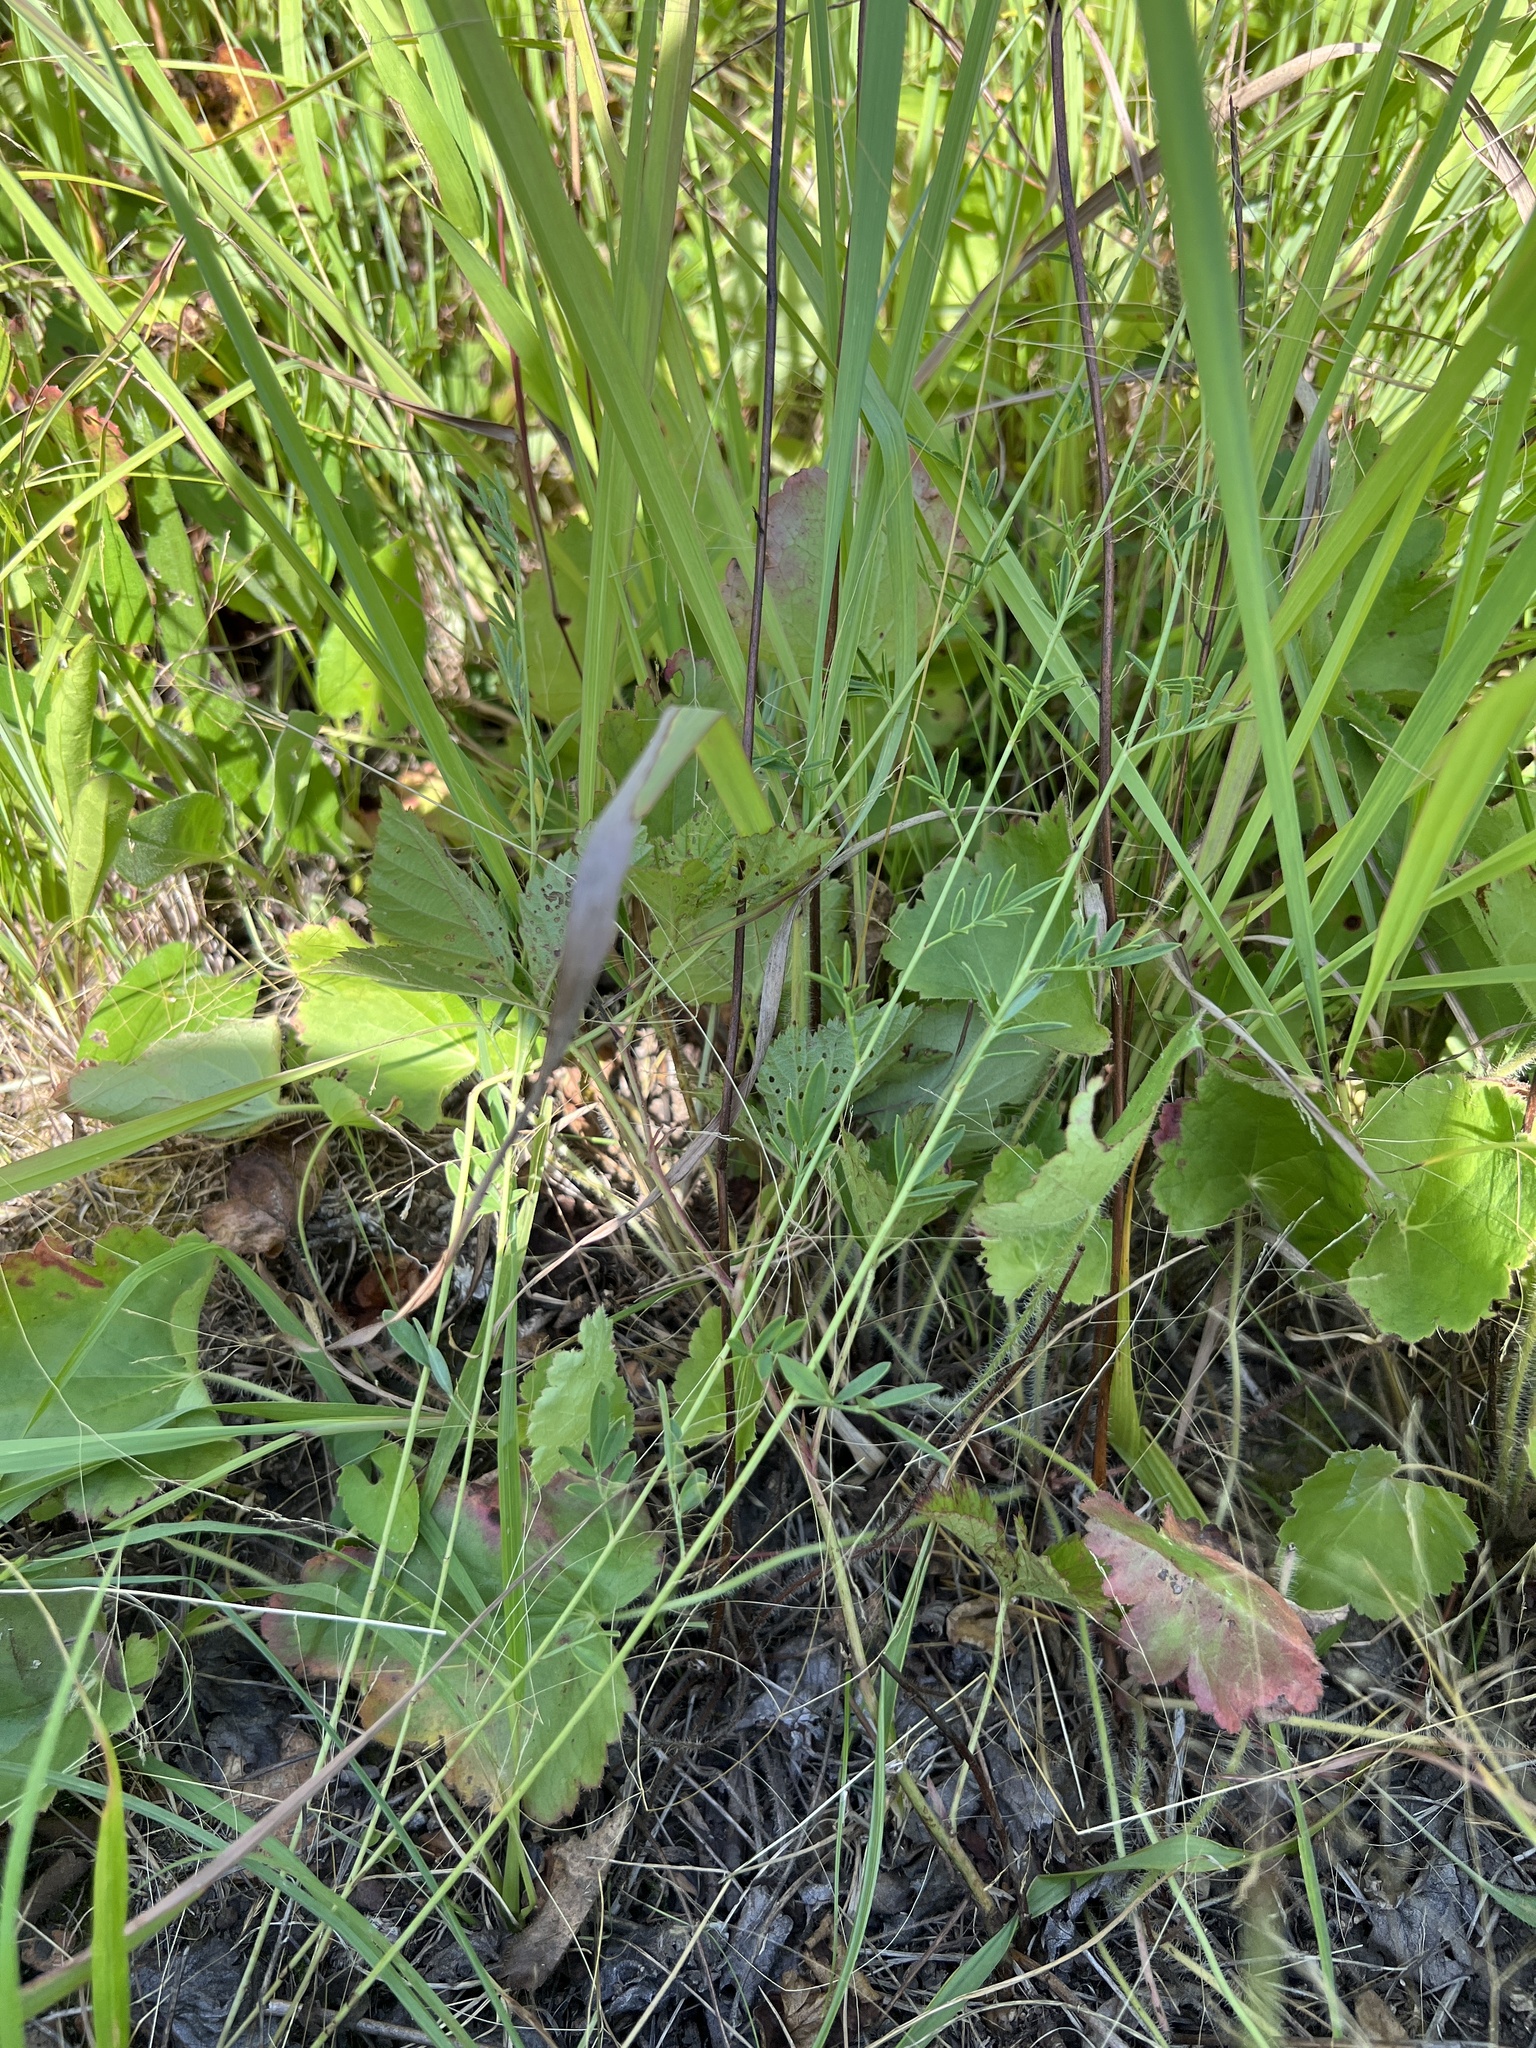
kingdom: Plantae
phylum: Tracheophyta
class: Magnoliopsida
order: Saxifragales
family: Saxifragaceae
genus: Heuchera
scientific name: Heuchera richardsonii
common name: Richardson's alumroot
